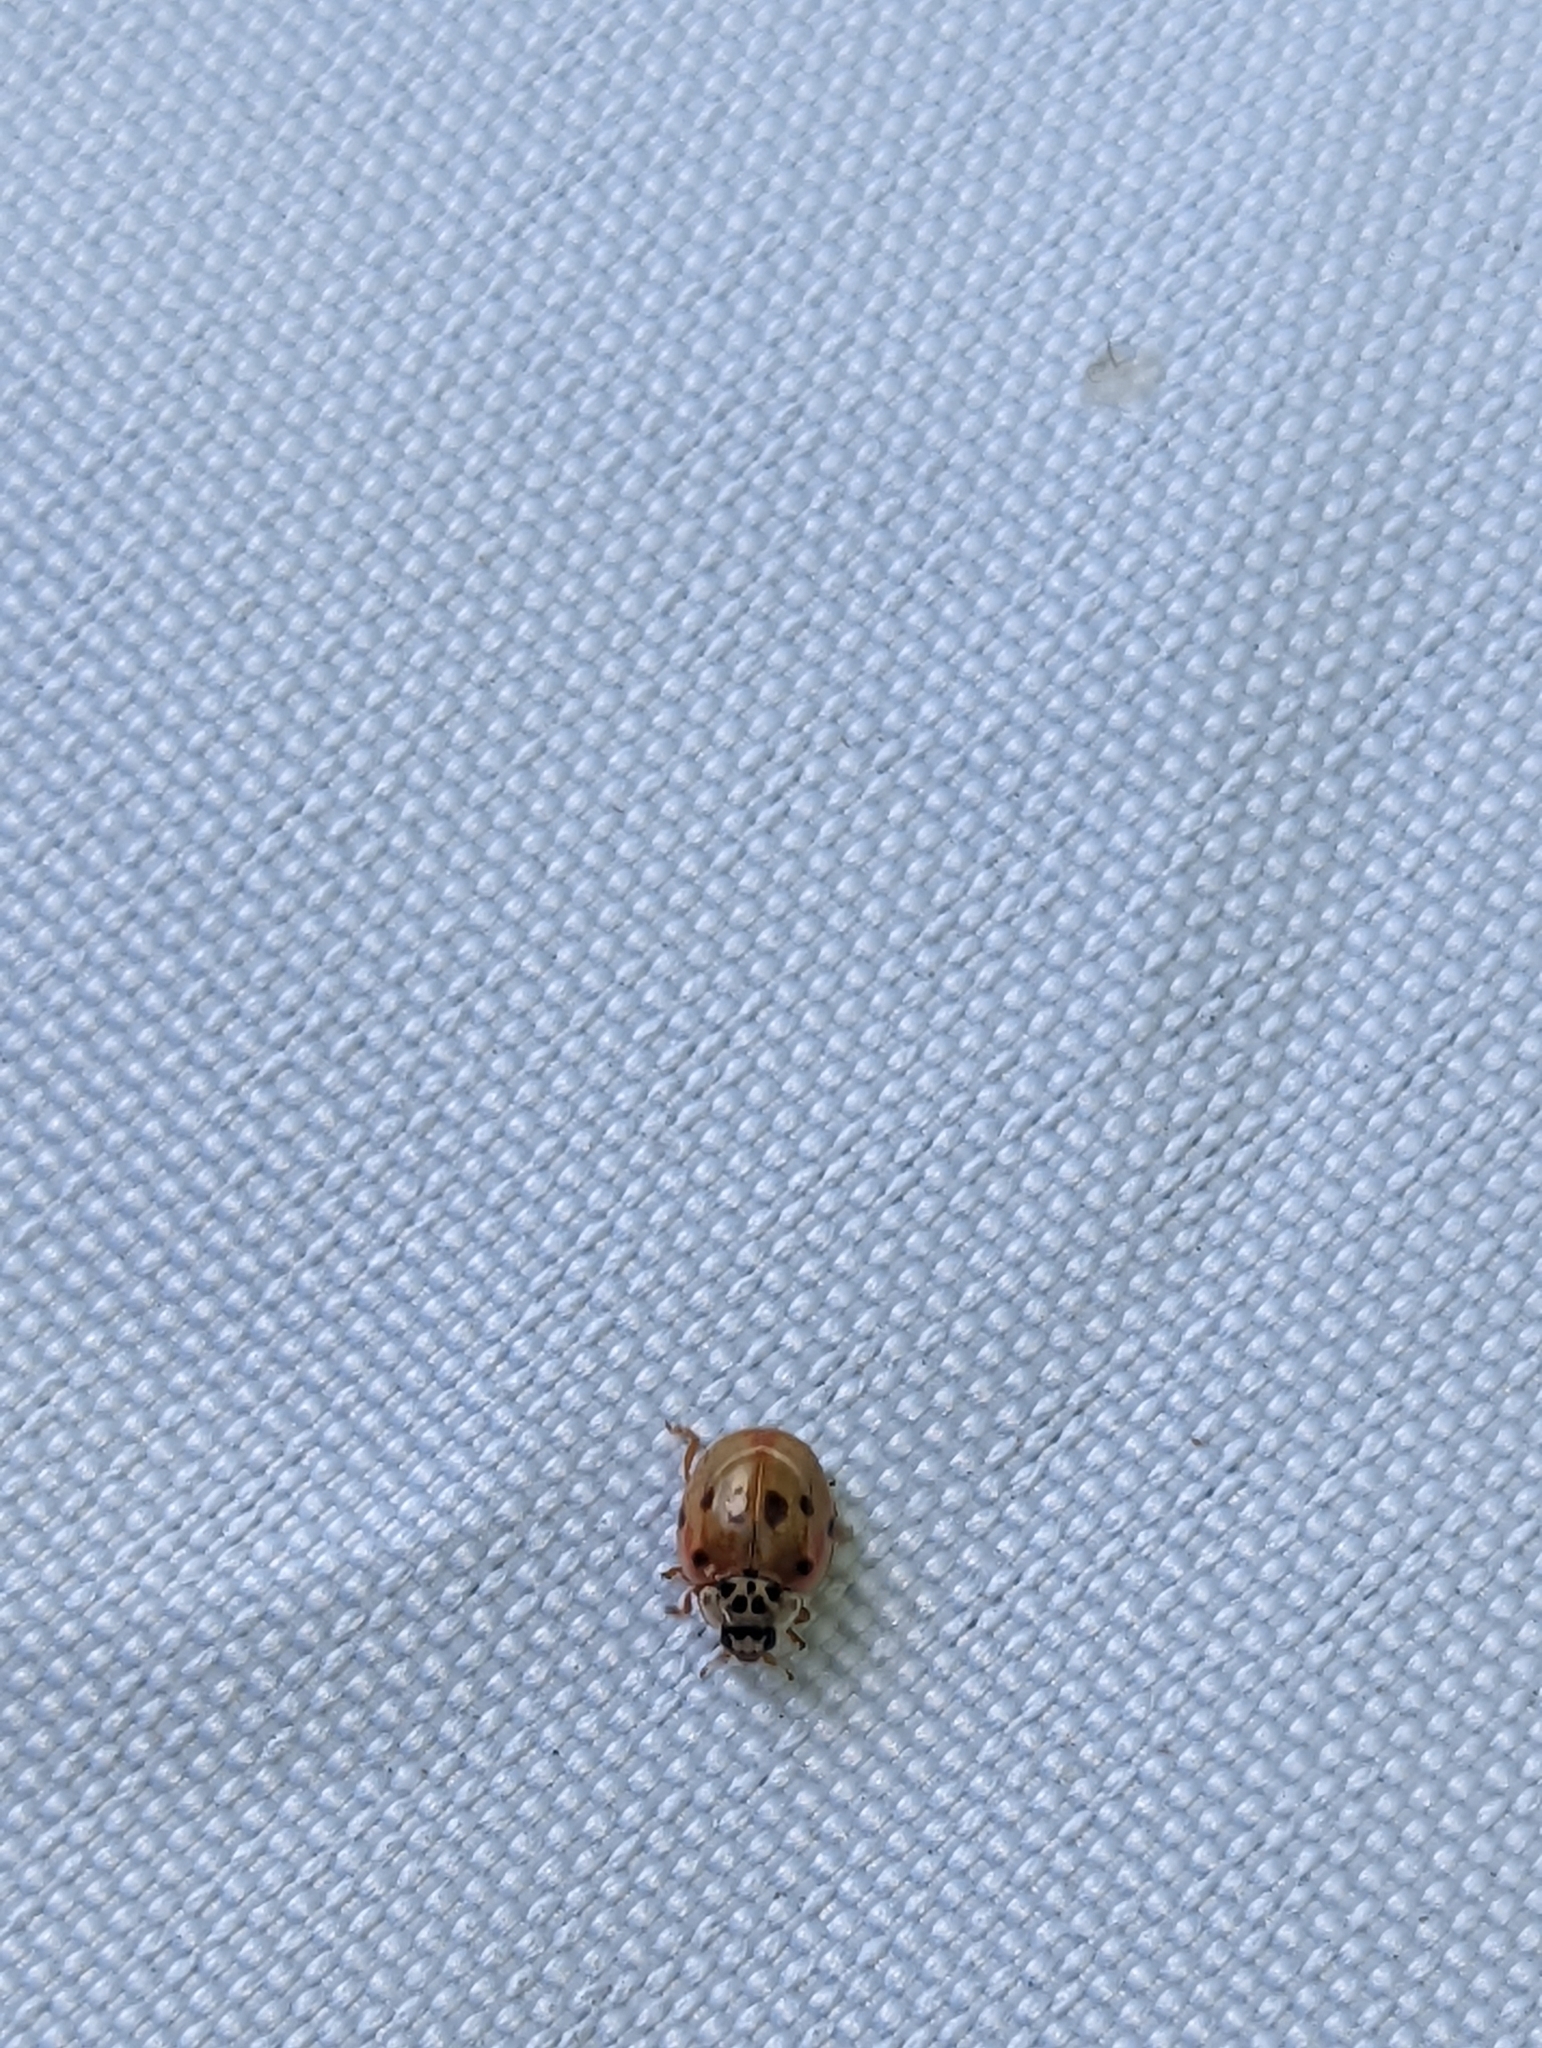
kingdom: Animalia
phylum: Arthropoda
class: Insecta
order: Coleoptera
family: Coccinellidae
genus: Adalia
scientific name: Adalia decempunctata
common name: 10-spot ladybird
